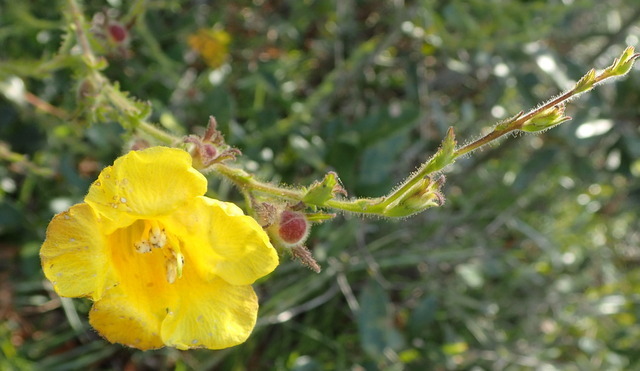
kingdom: Plantae
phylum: Tracheophyta
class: Magnoliopsida
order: Lamiales
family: Orobanchaceae
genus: Aureolaria
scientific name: Aureolaria pectinata
